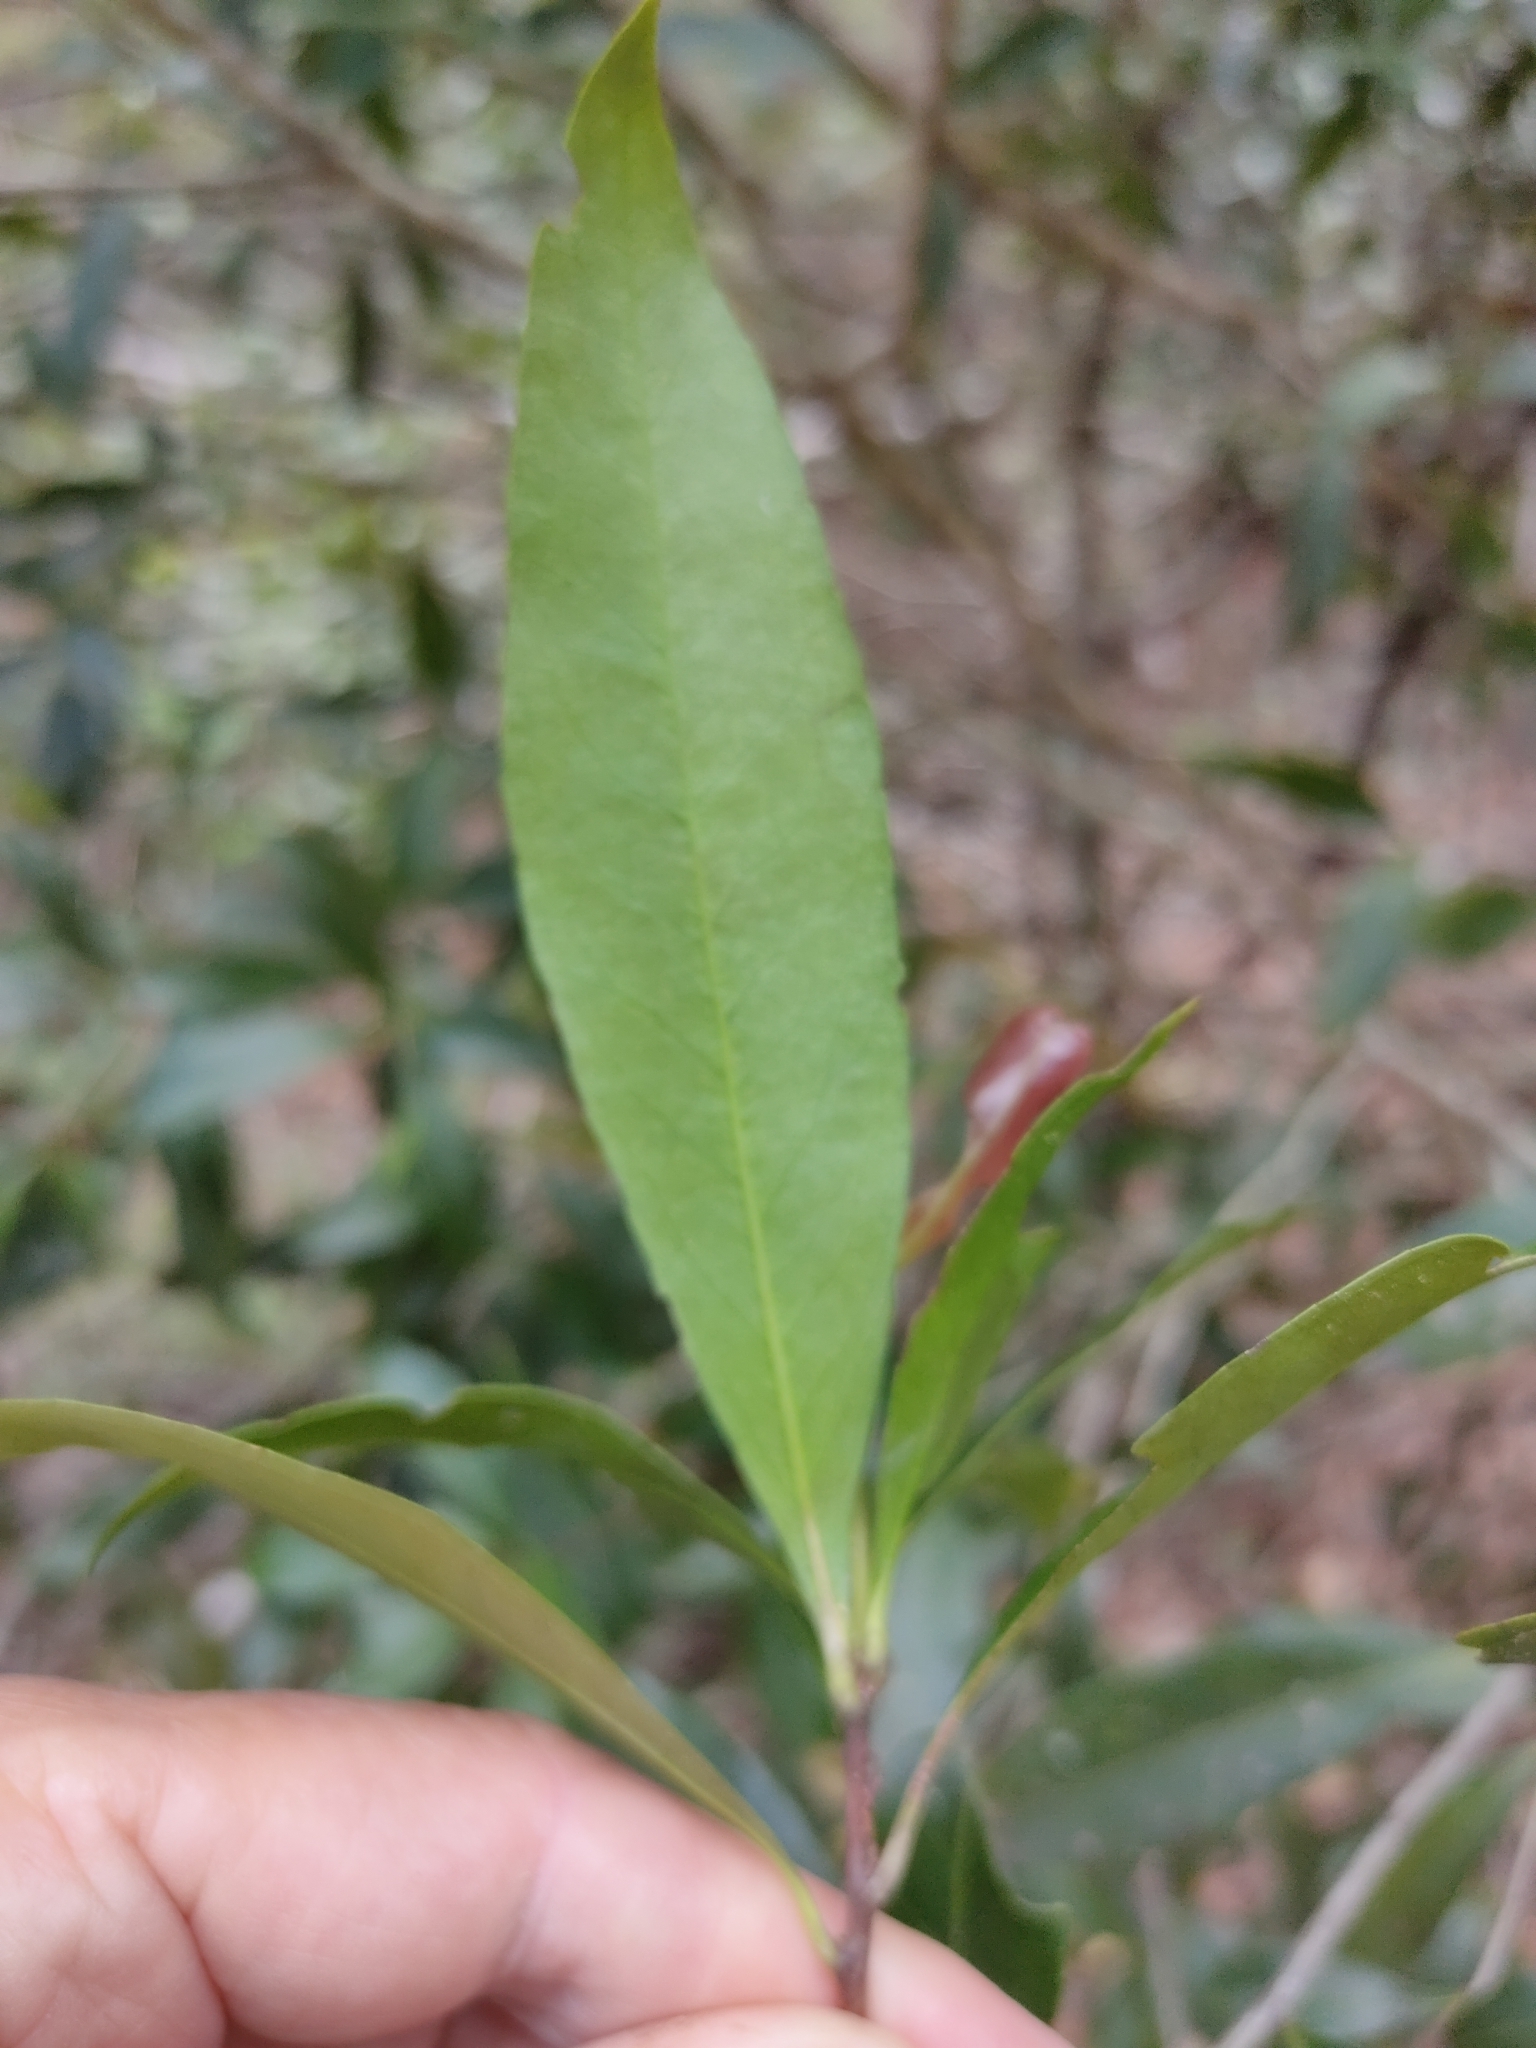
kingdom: Plantae
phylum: Tracheophyta
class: Magnoliopsida
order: Celastrales
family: Celastraceae
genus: Denhamia
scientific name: Denhamia celastroides
